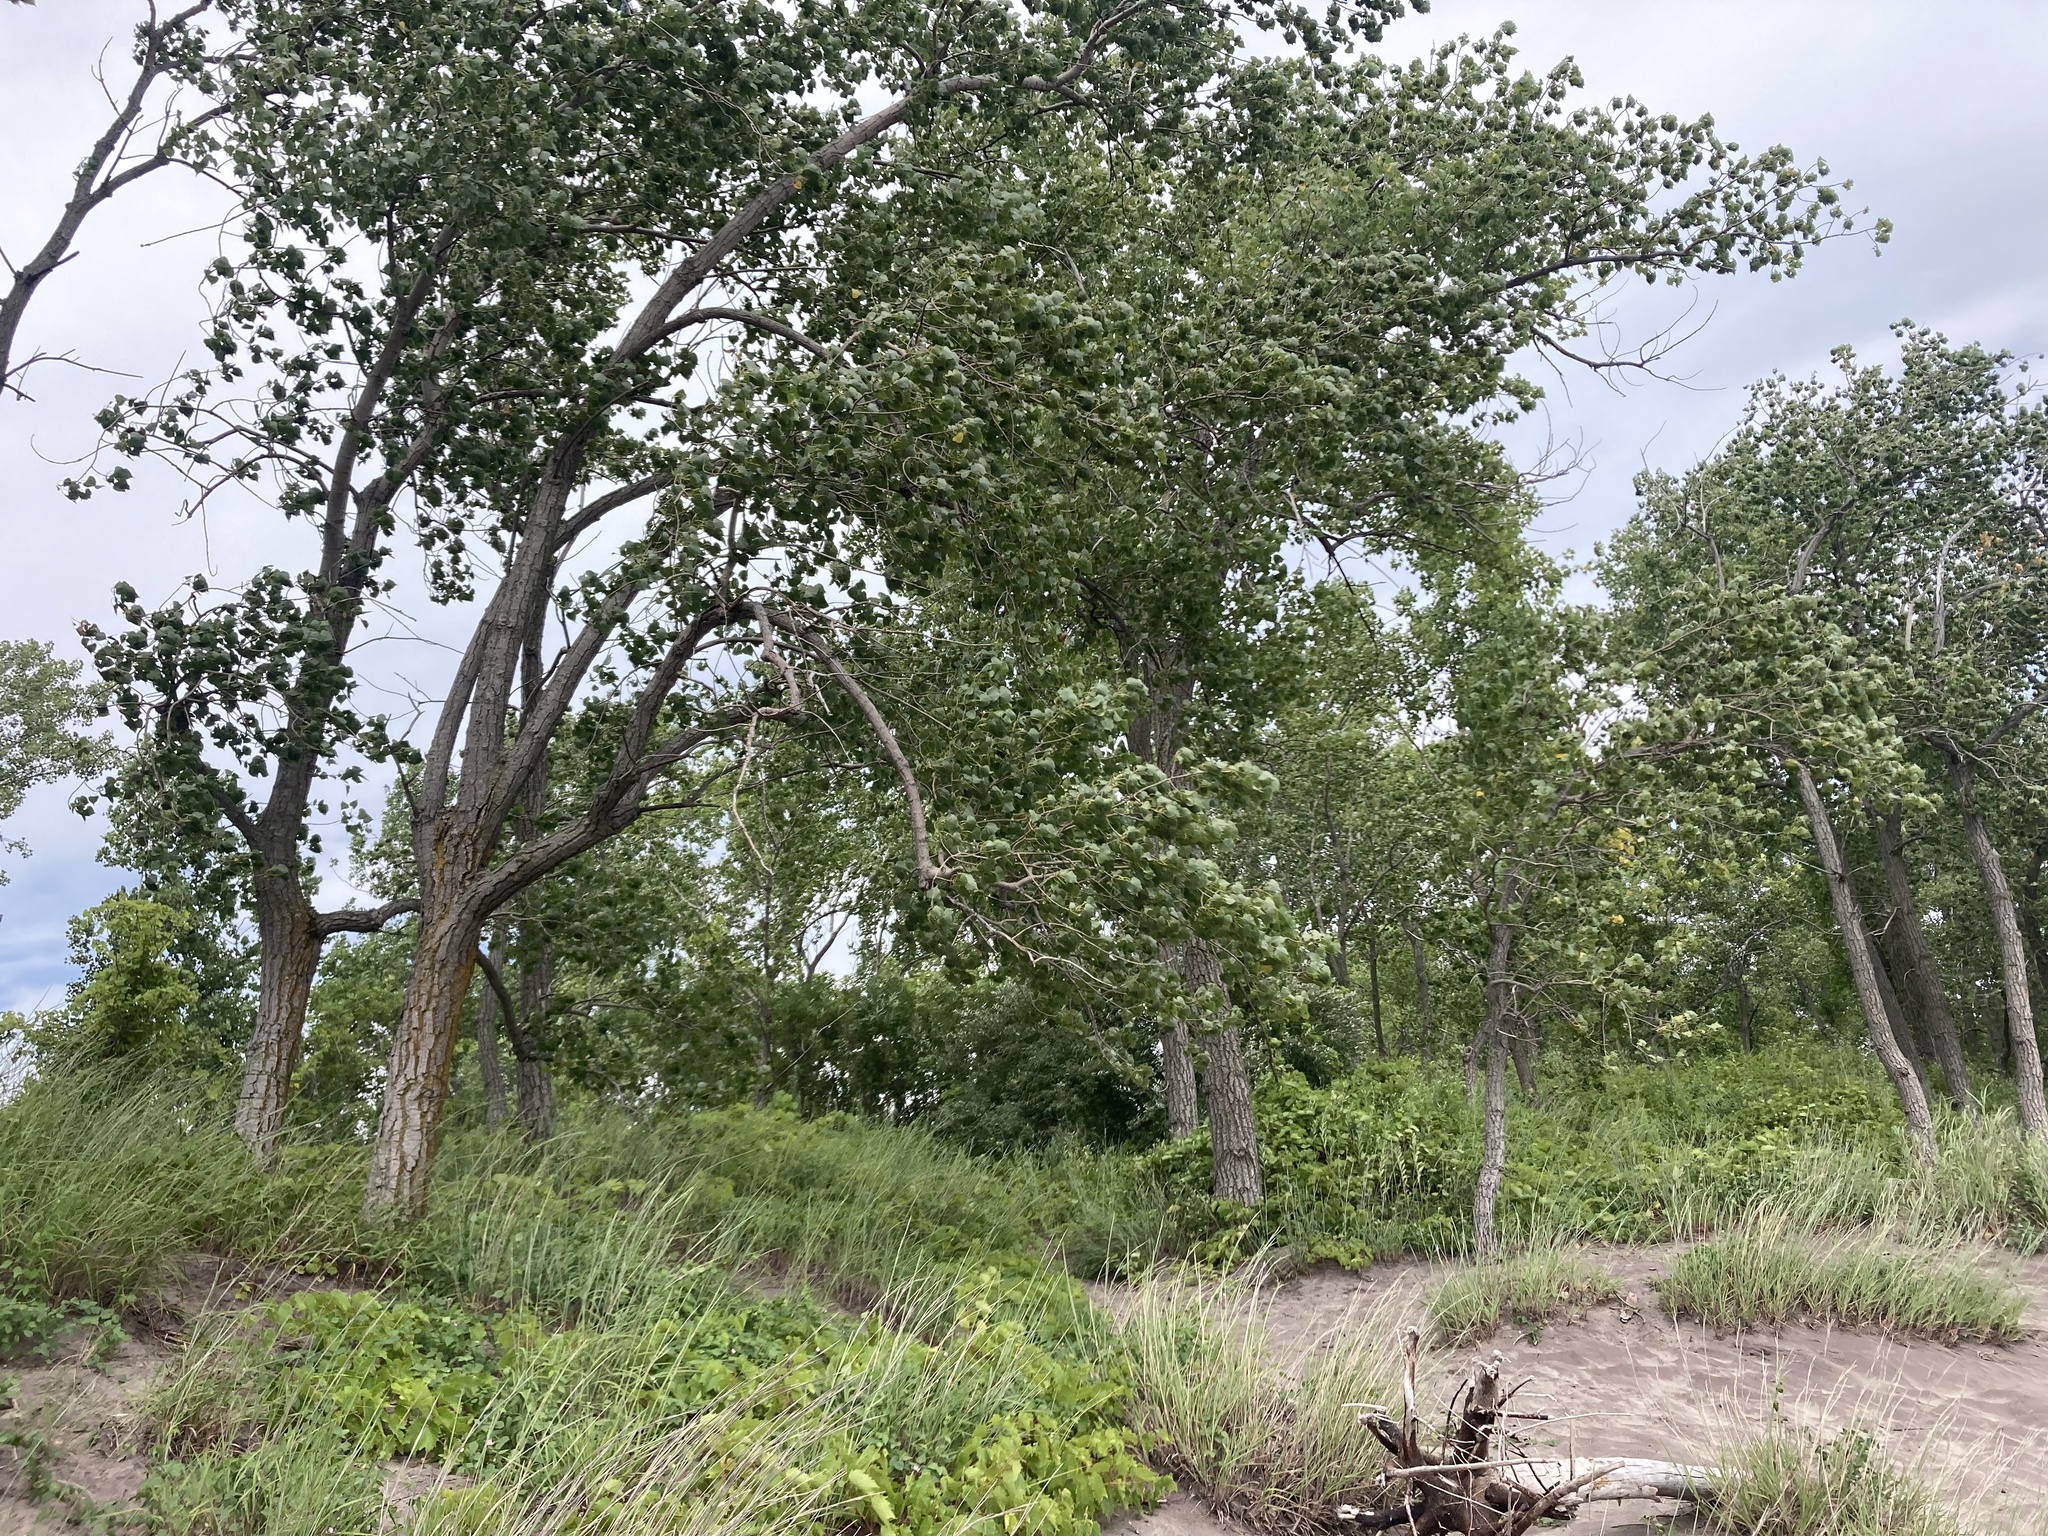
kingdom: Plantae
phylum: Tracheophyta
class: Magnoliopsida
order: Malpighiales
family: Salicaceae
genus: Populus
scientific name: Populus deltoides
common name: Eastern cottonwood
